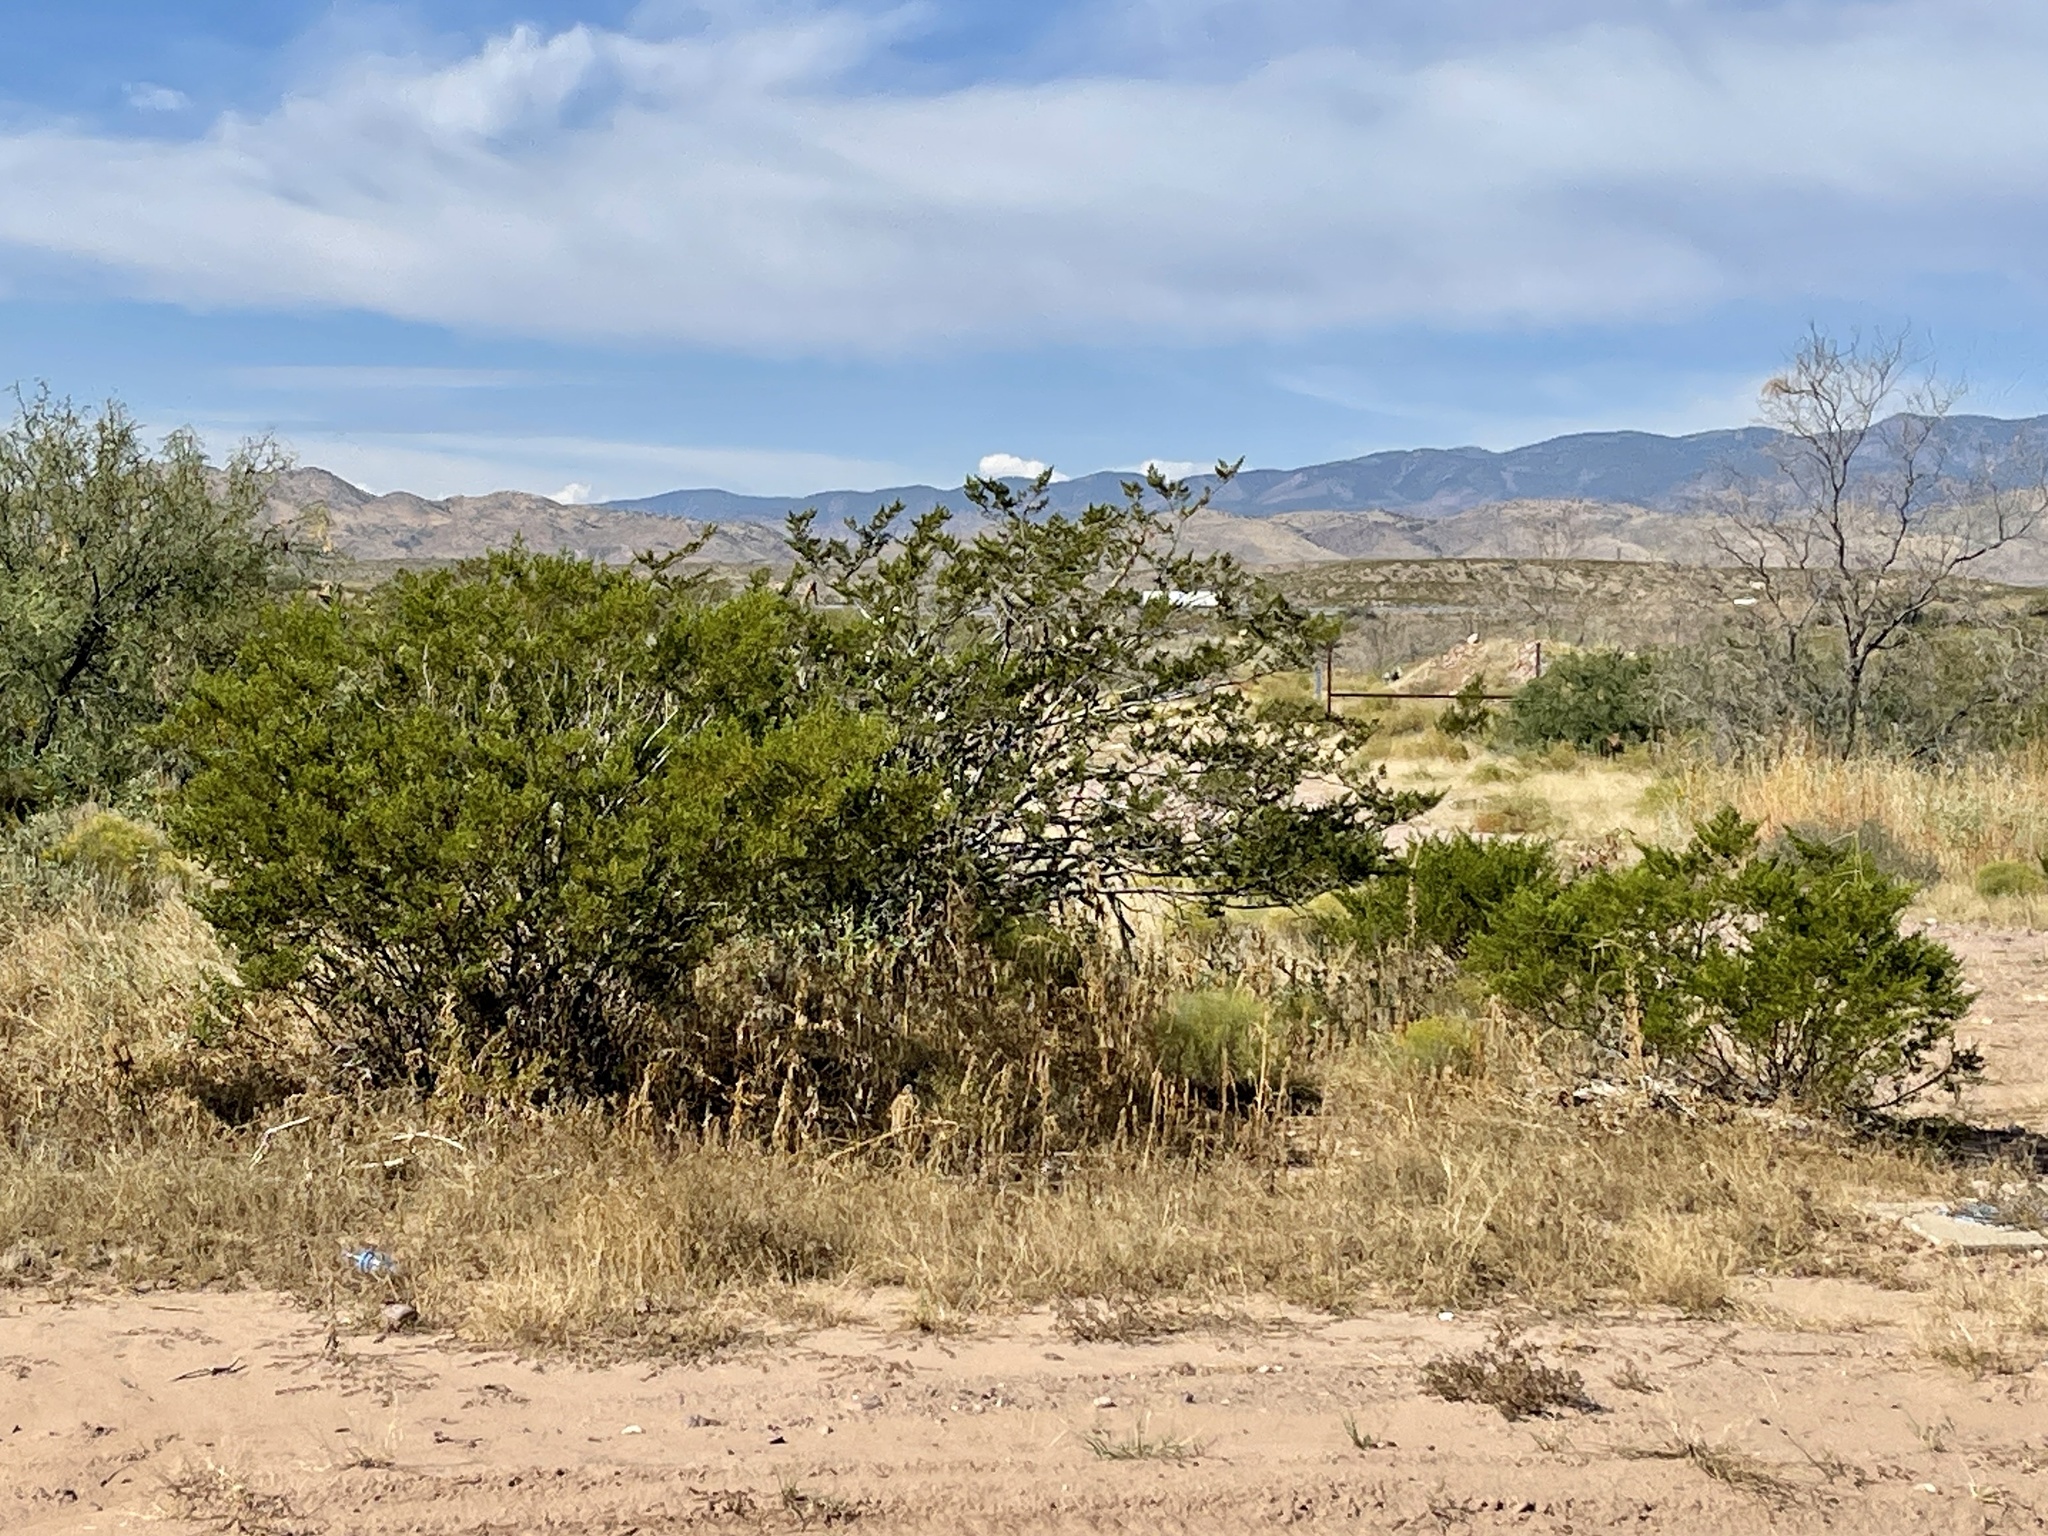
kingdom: Plantae
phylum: Tracheophyta
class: Magnoliopsida
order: Zygophyllales
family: Zygophyllaceae
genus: Larrea
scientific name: Larrea tridentata
